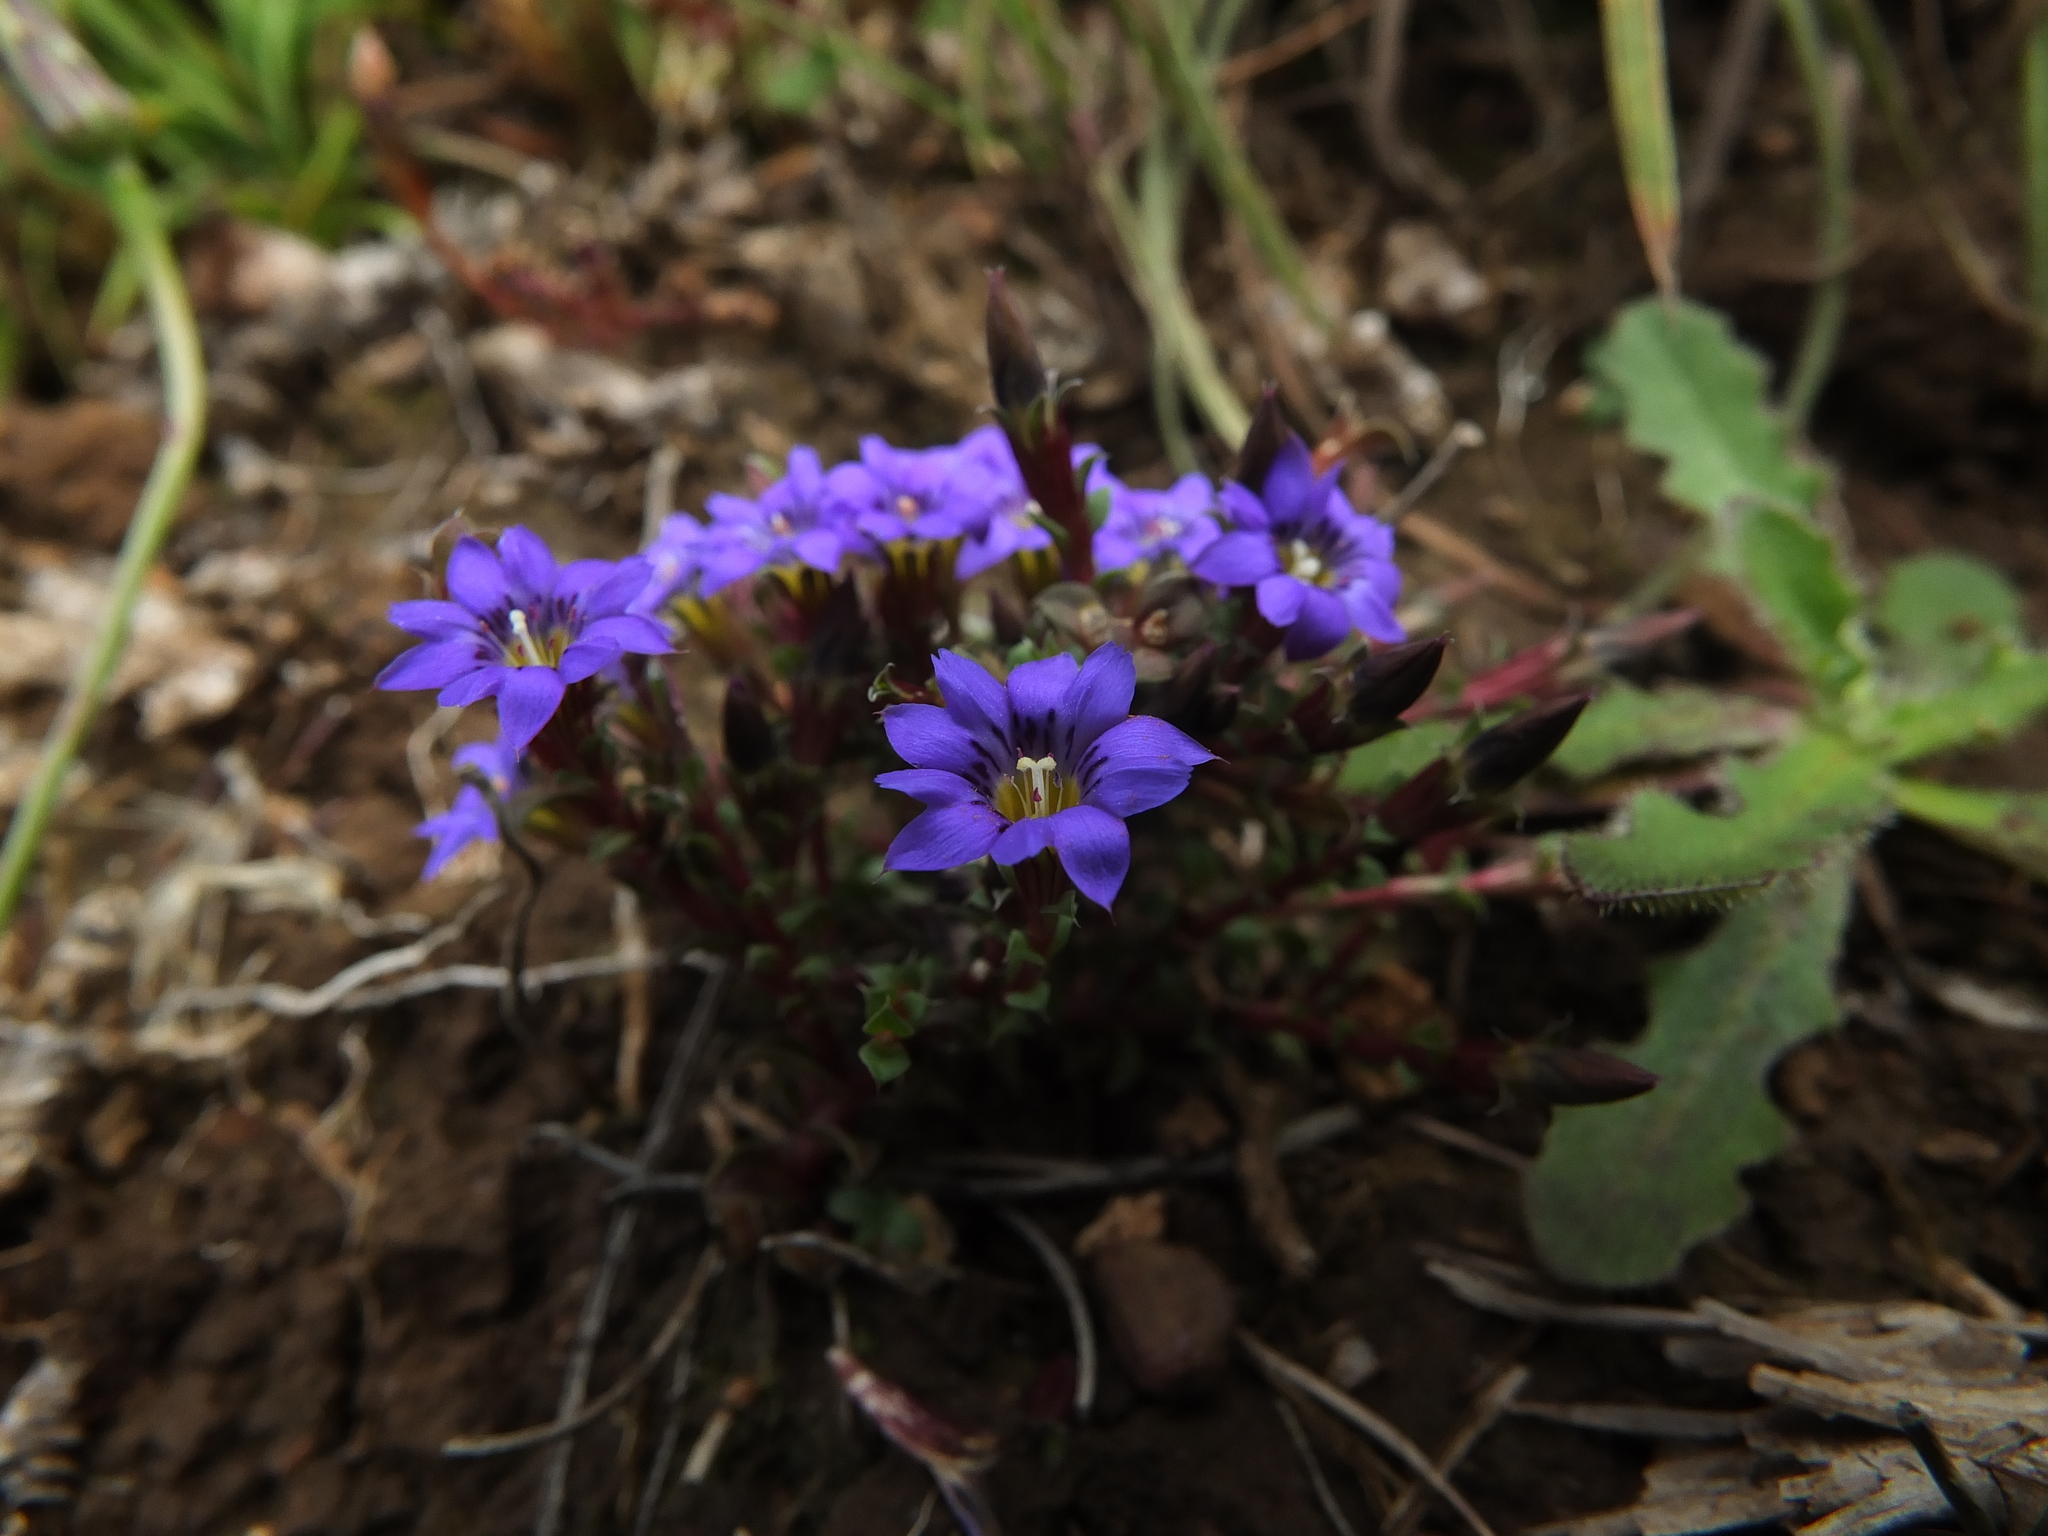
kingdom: Plantae
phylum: Tracheophyta
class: Magnoliopsida
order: Gentianales
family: Gentianaceae
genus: Gentiana
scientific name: Gentiana quadrifaria
